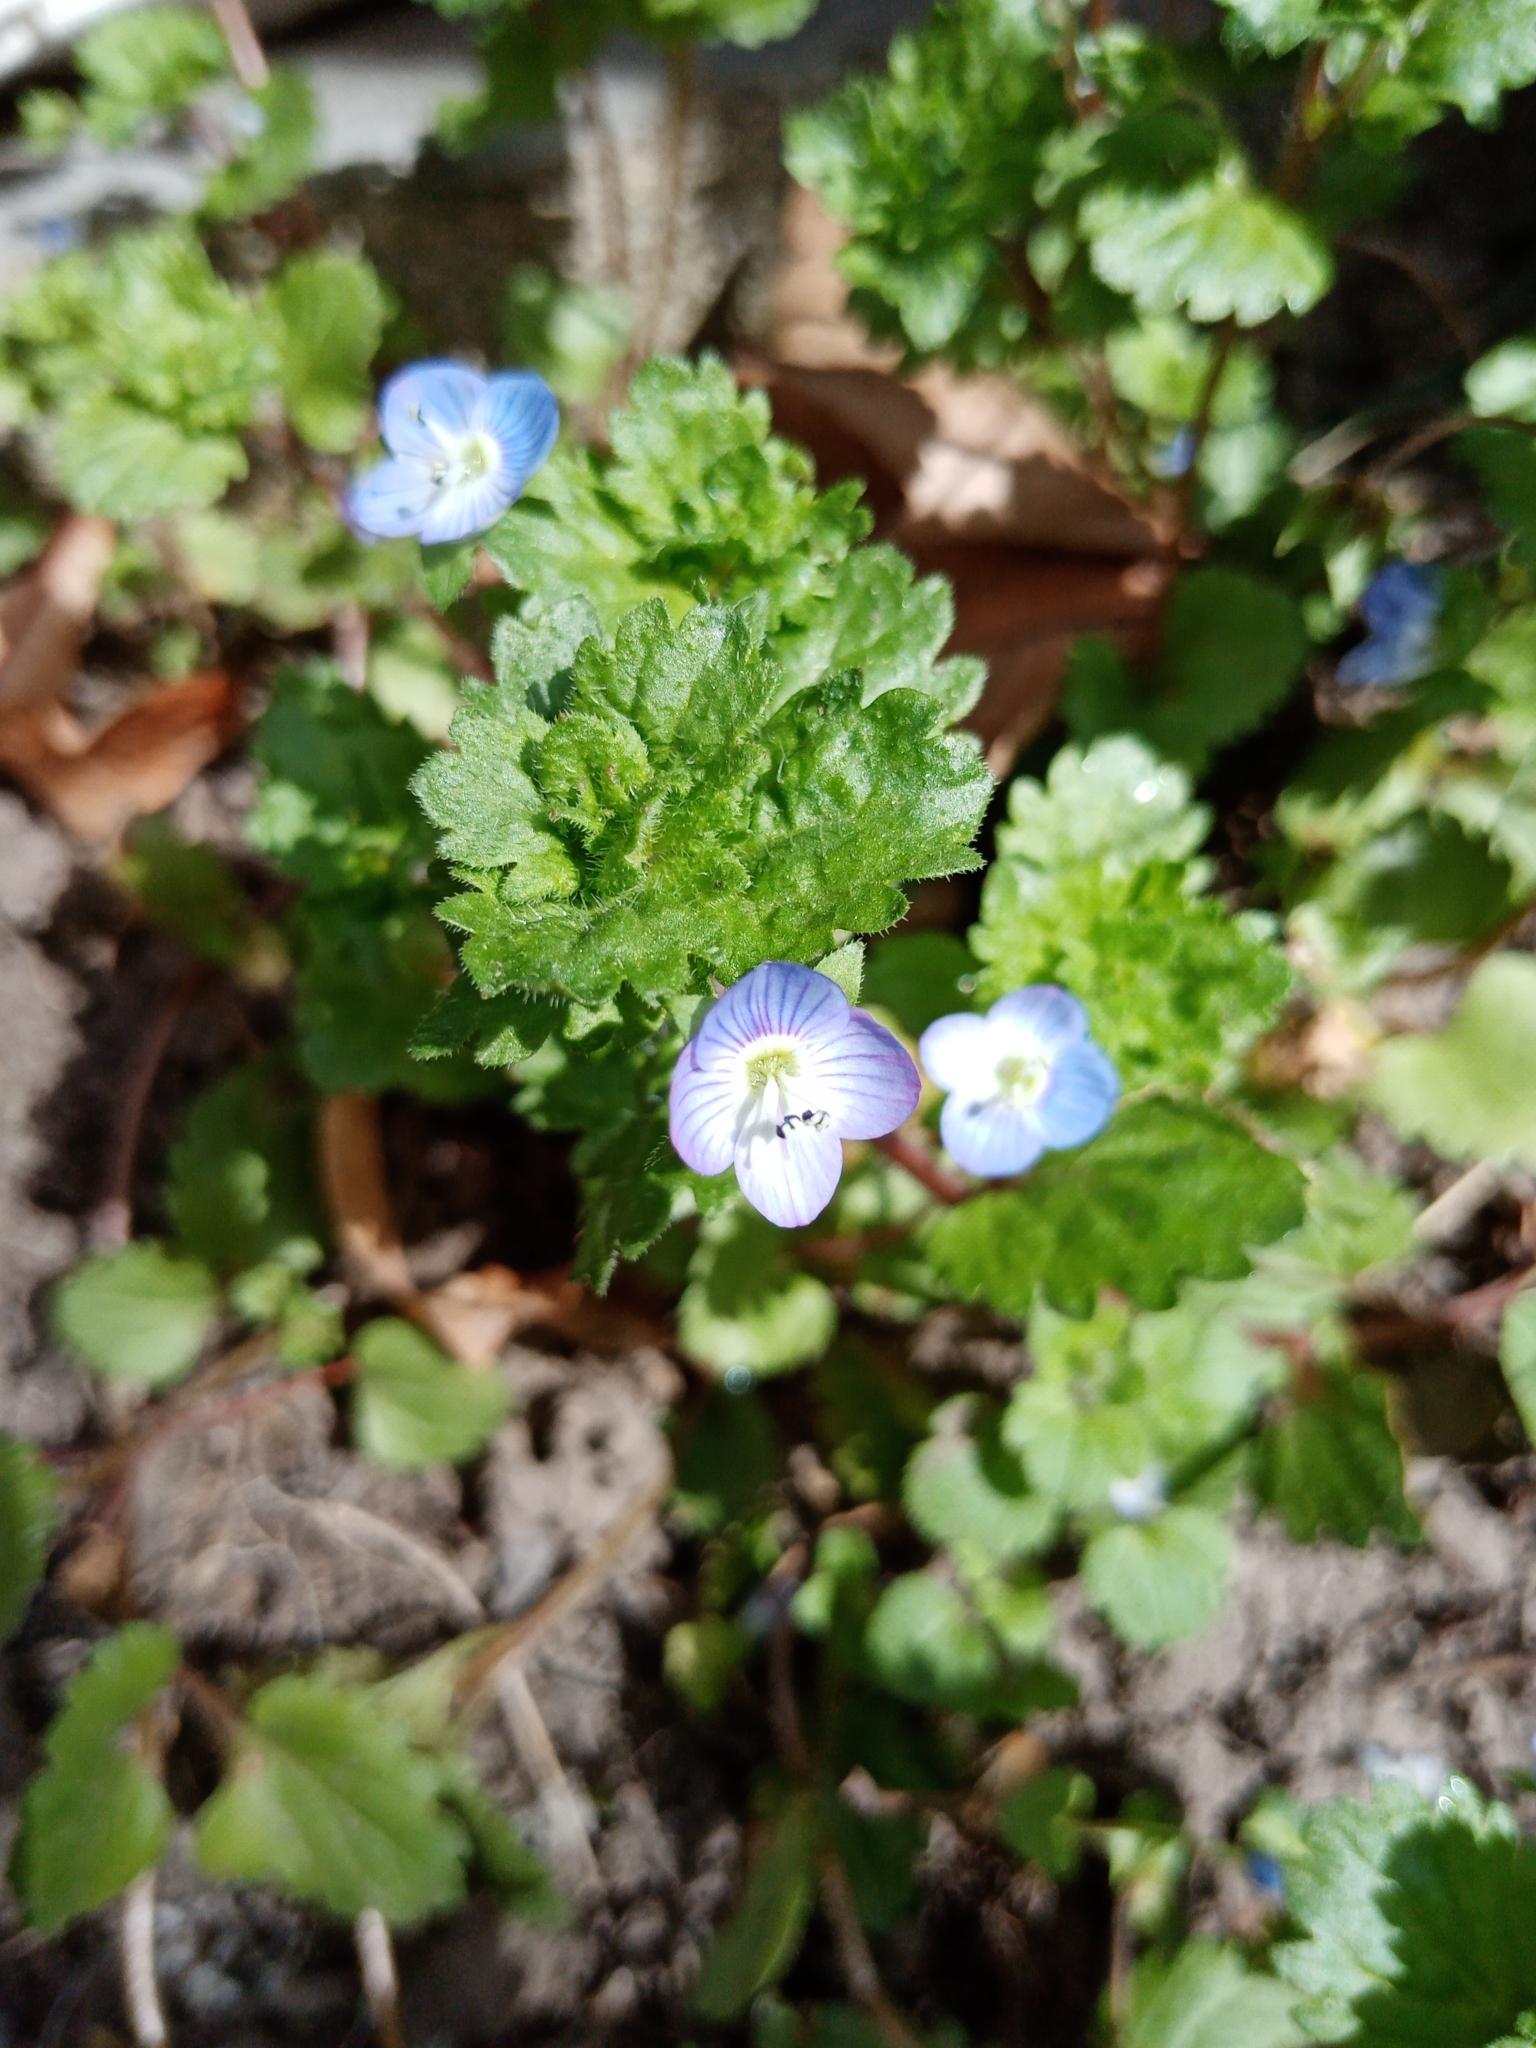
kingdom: Plantae
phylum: Tracheophyta
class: Magnoliopsida
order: Lamiales
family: Plantaginaceae
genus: Veronica
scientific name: Veronica persica
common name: Common field-speedwell
